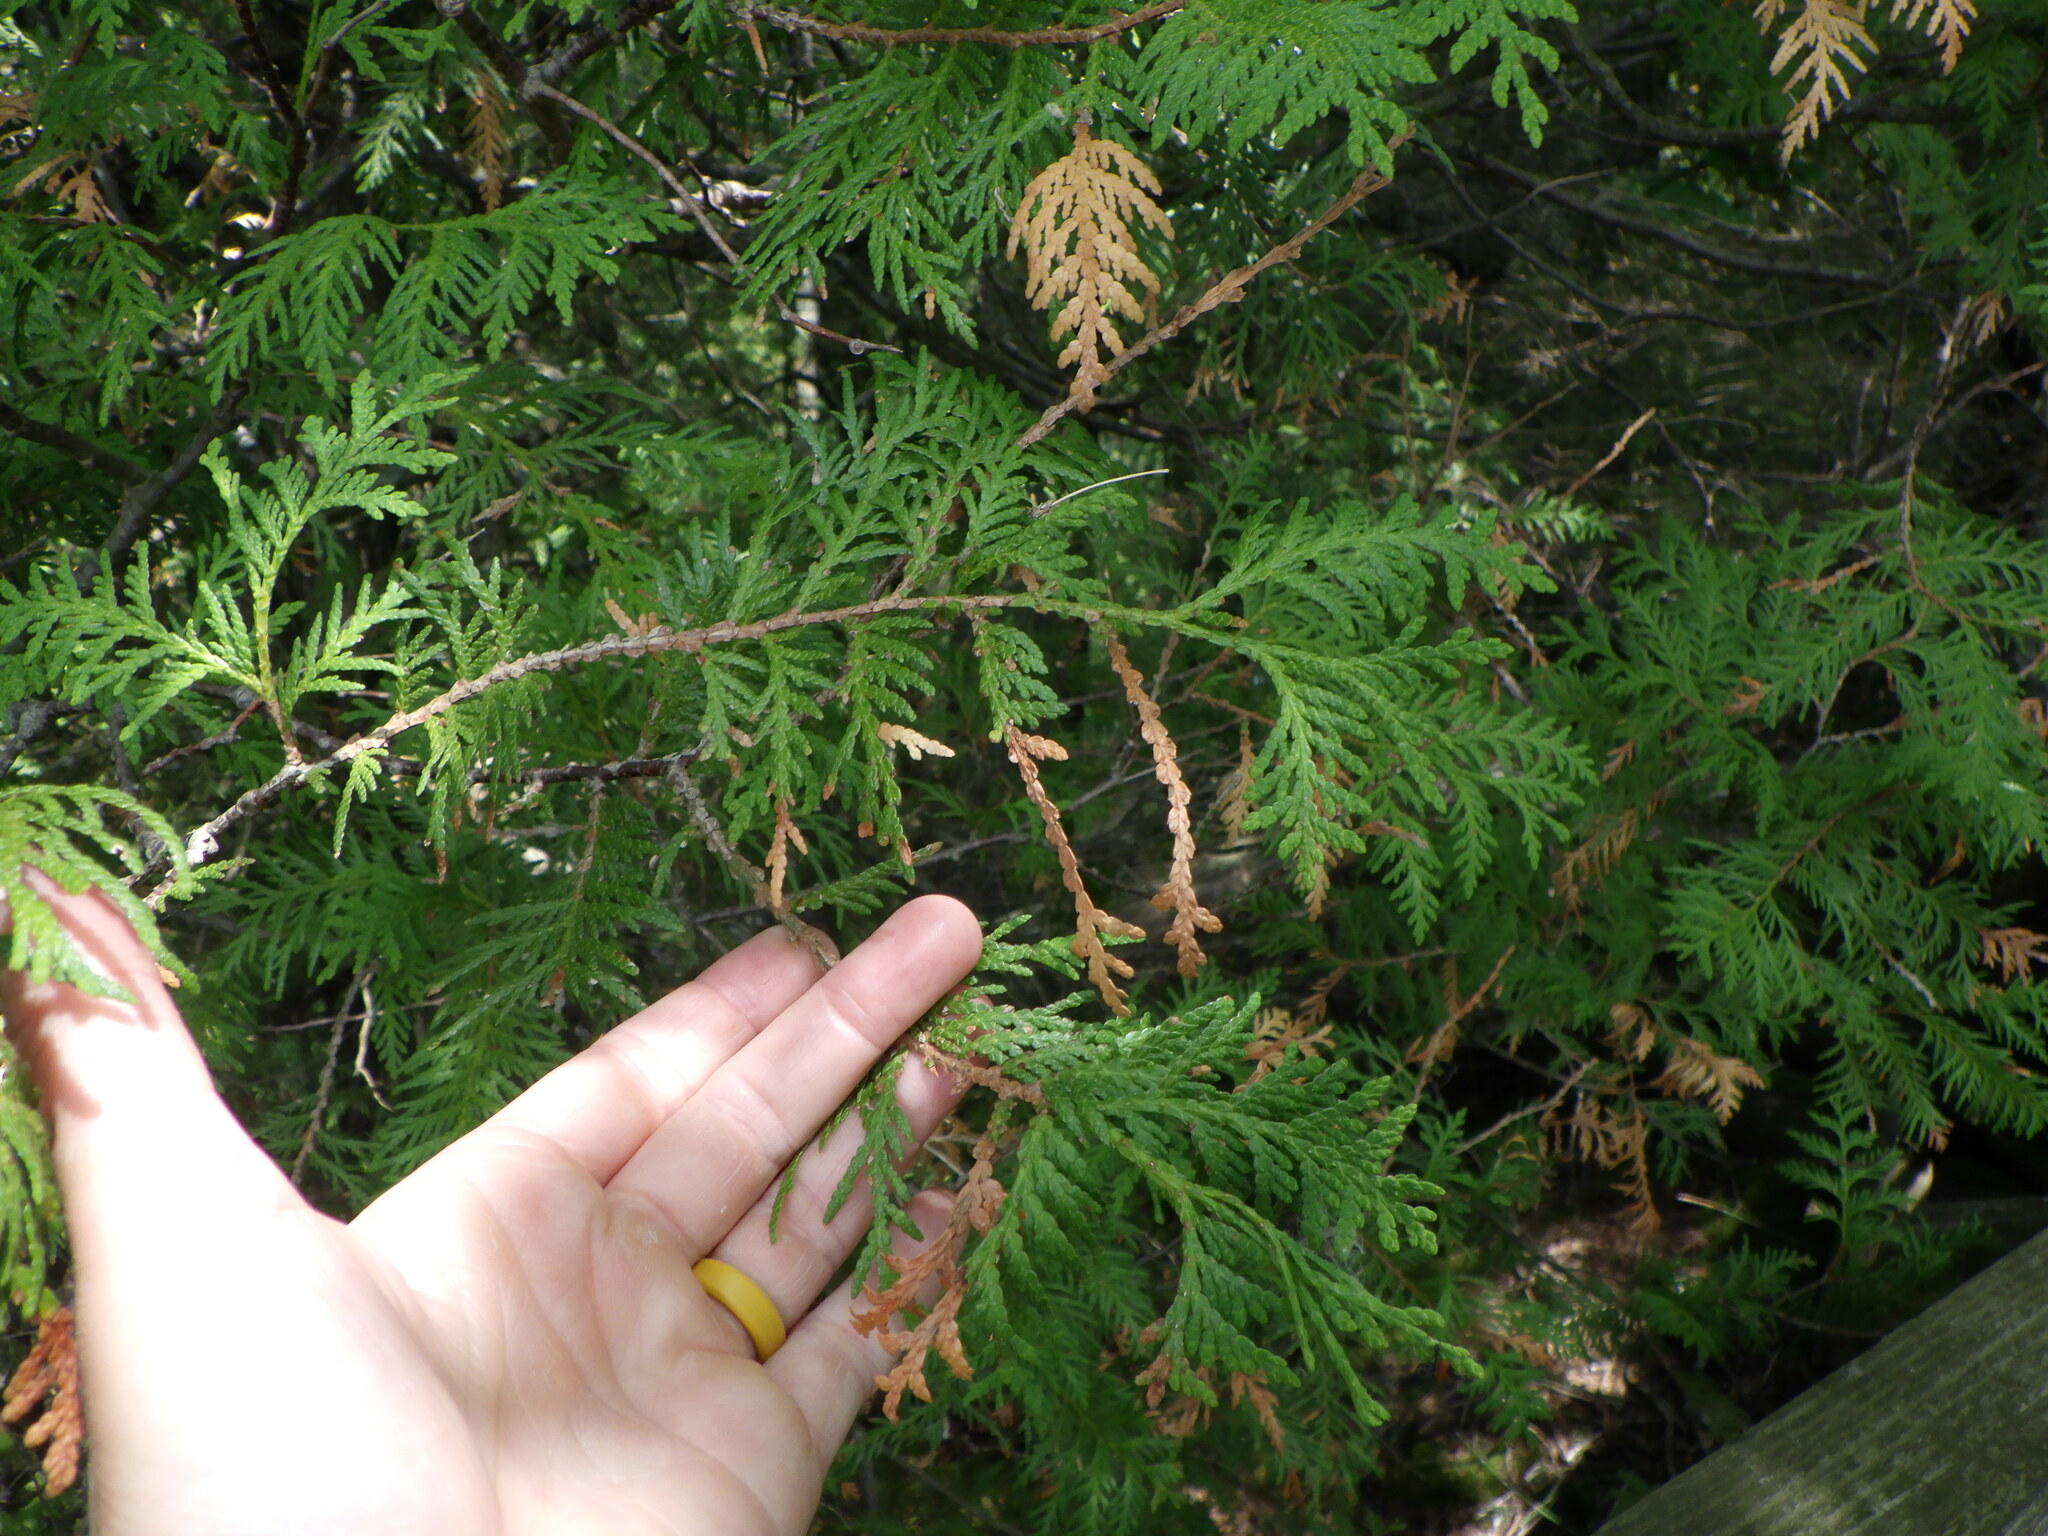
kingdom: Plantae
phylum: Tracheophyta
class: Pinopsida
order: Pinales
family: Cupressaceae
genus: Thuja
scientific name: Thuja occidentalis
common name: Northern white-cedar
